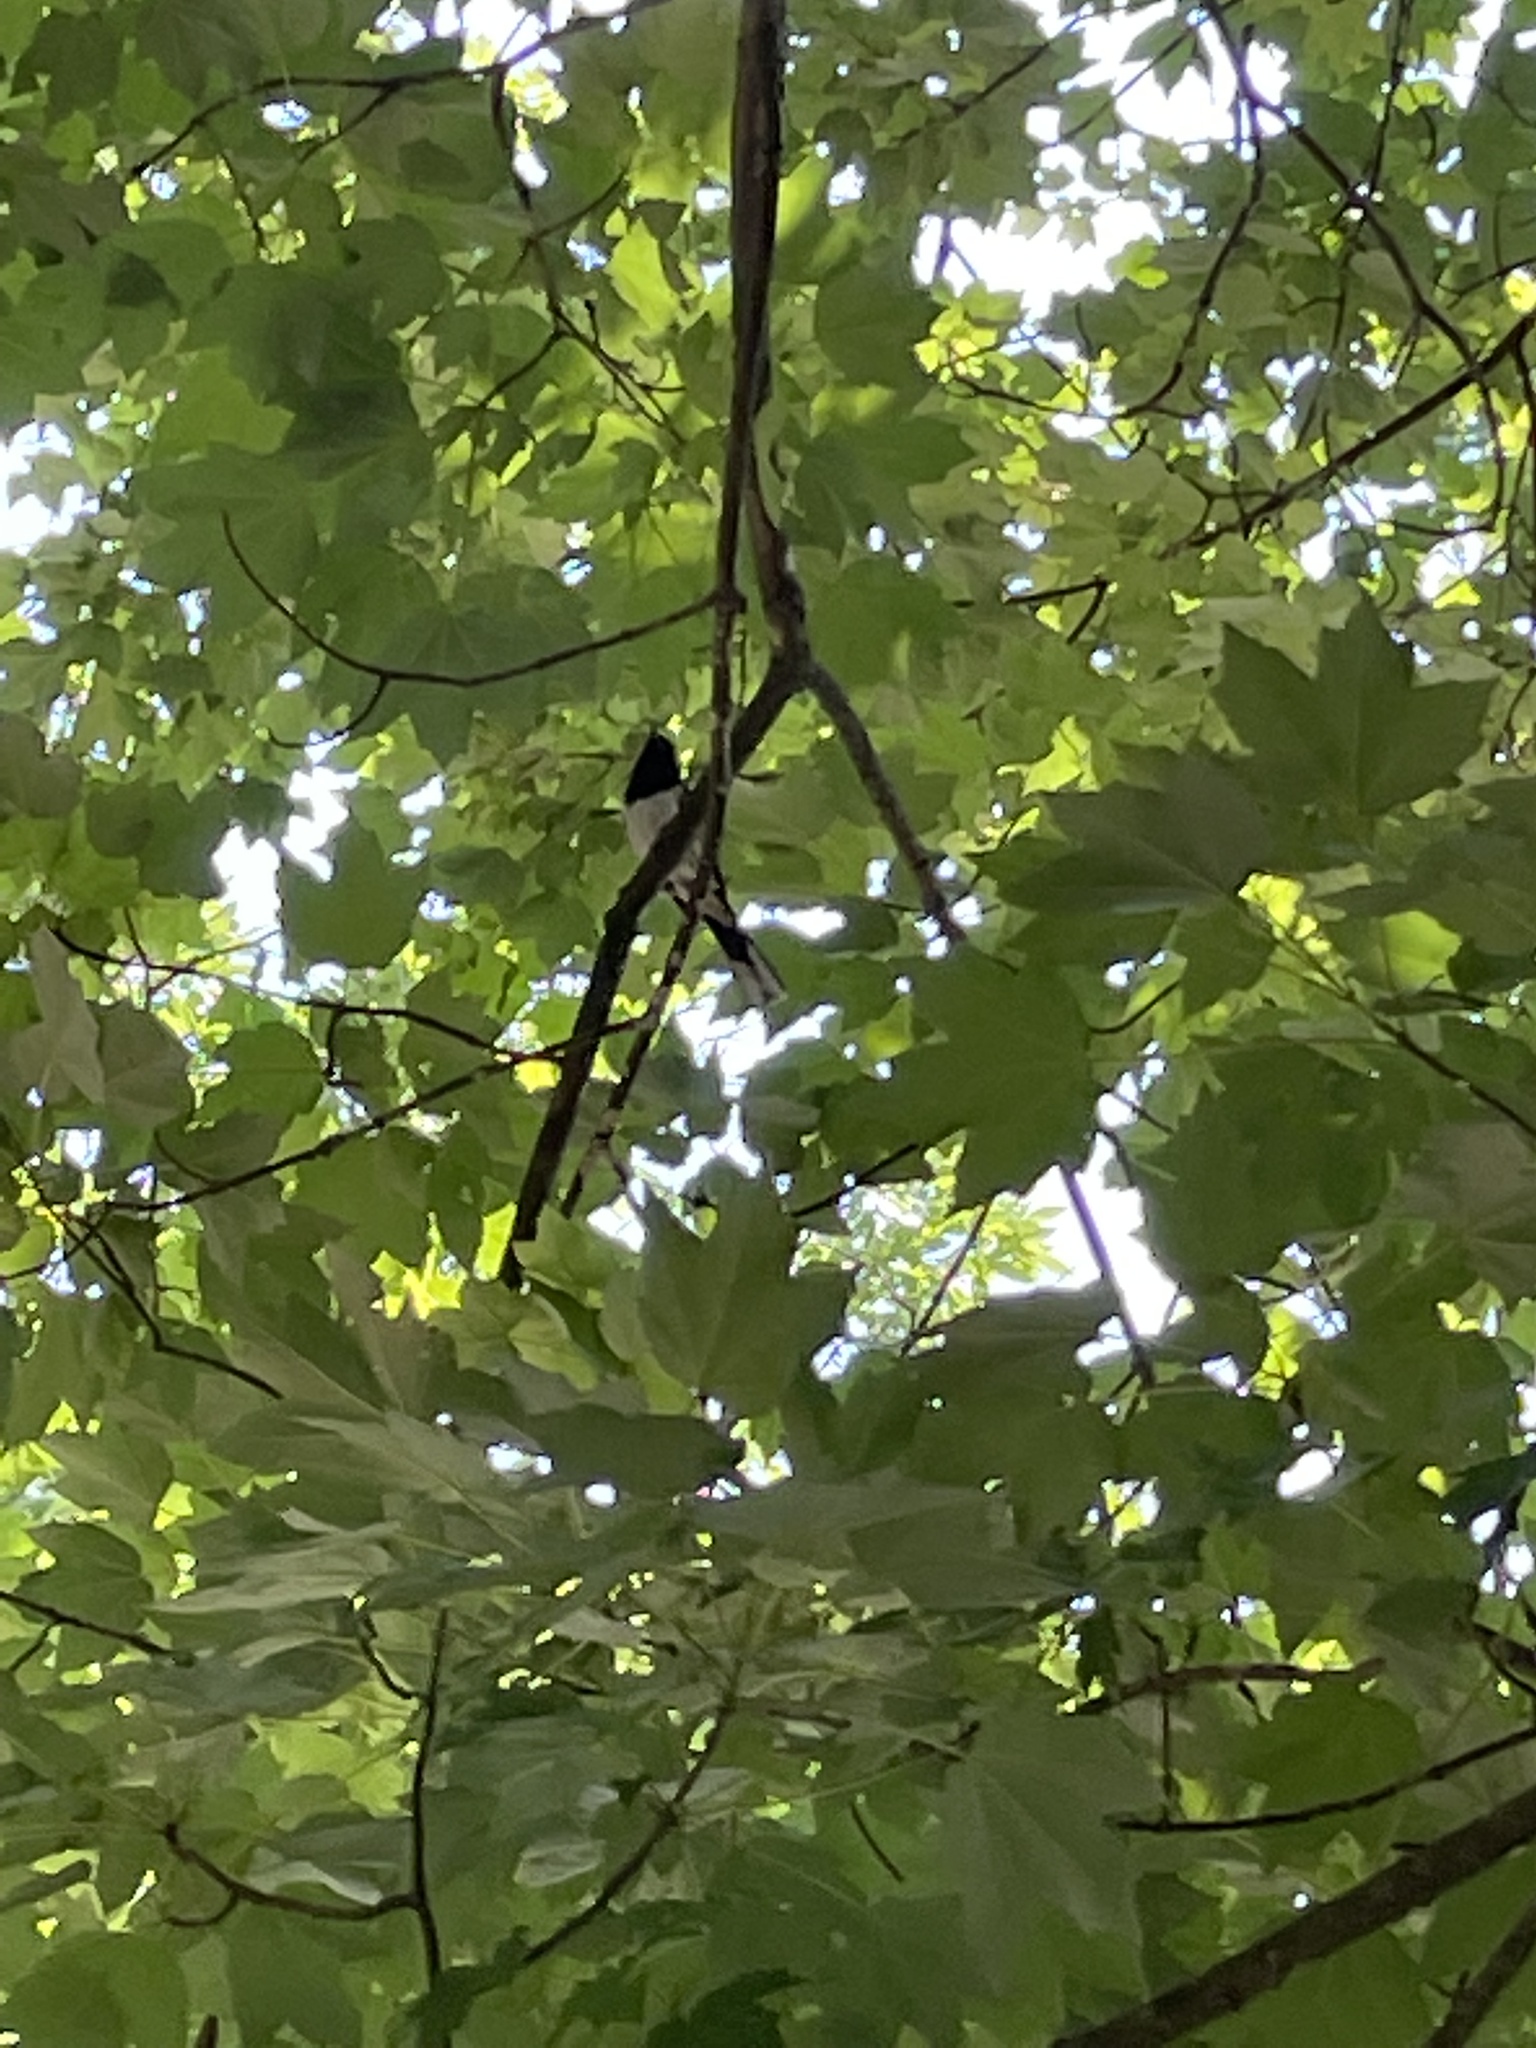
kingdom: Animalia
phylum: Chordata
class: Aves
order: Passeriformes
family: Passerellidae
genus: Pipilo
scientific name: Pipilo erythrophthalmus
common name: Eastern towhee
